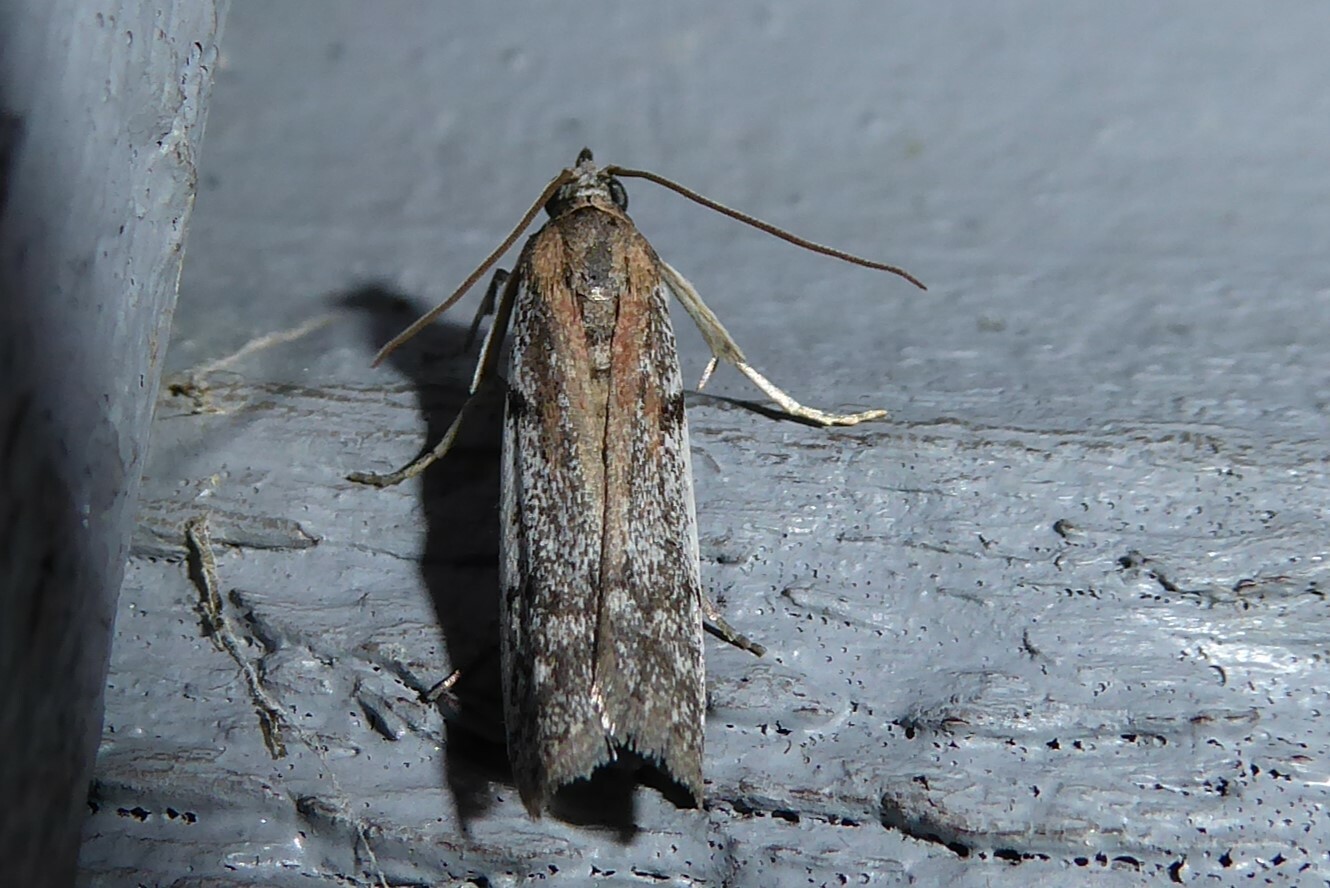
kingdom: Animalia
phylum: Arthropoda
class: Insecta
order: Lepidoptera
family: Pyralidae
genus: Patagoniodes
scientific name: Patagoniodes farinaria
